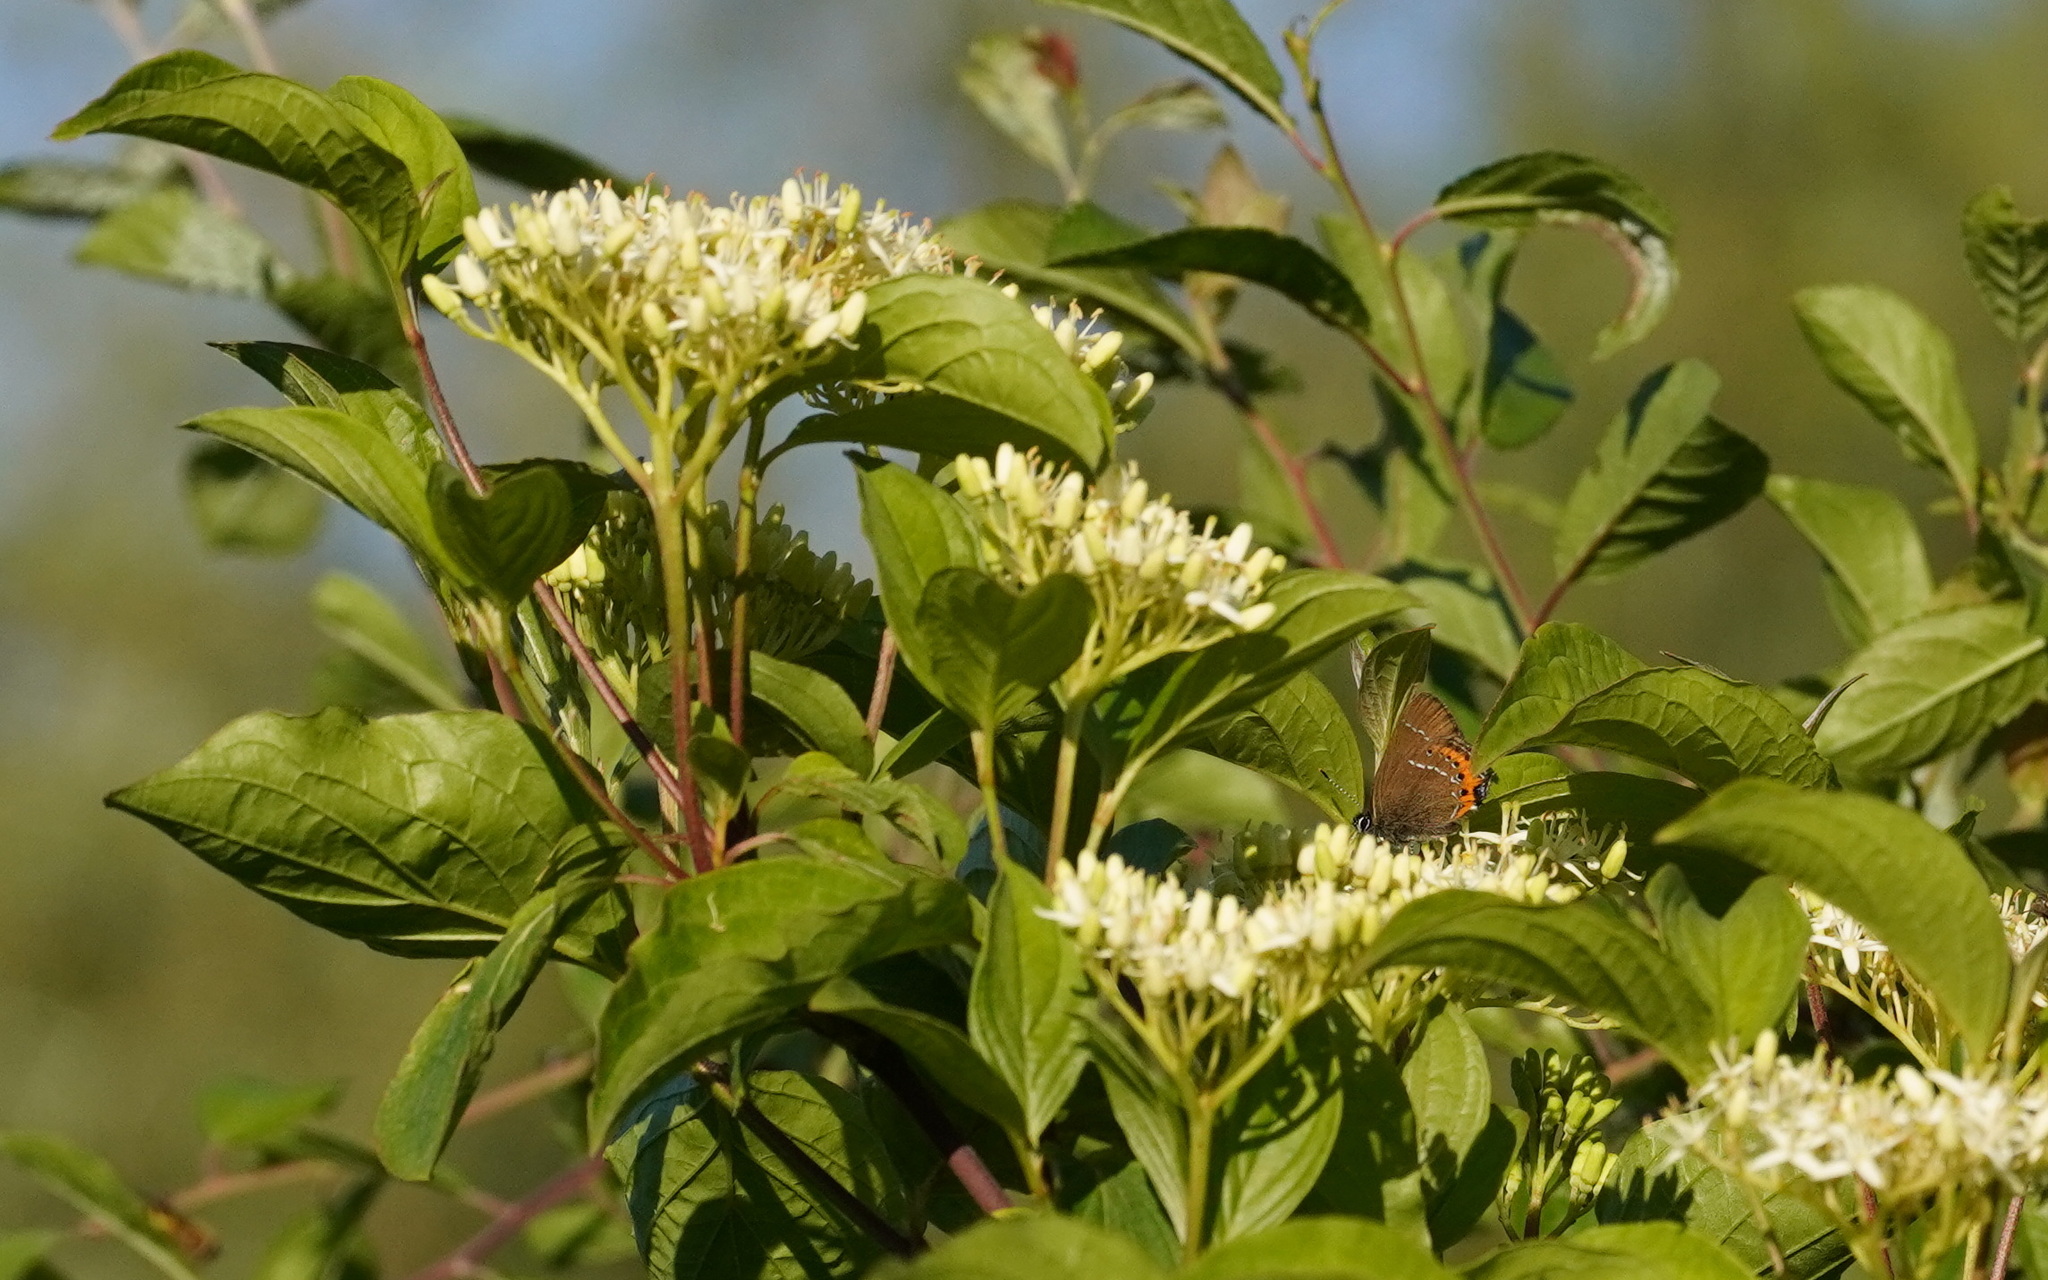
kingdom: Animalia
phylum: Arthropoda
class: Insecta
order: Lepidoptera
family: Lycaenidae
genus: Fixsenia
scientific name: Fixsenia pruni
